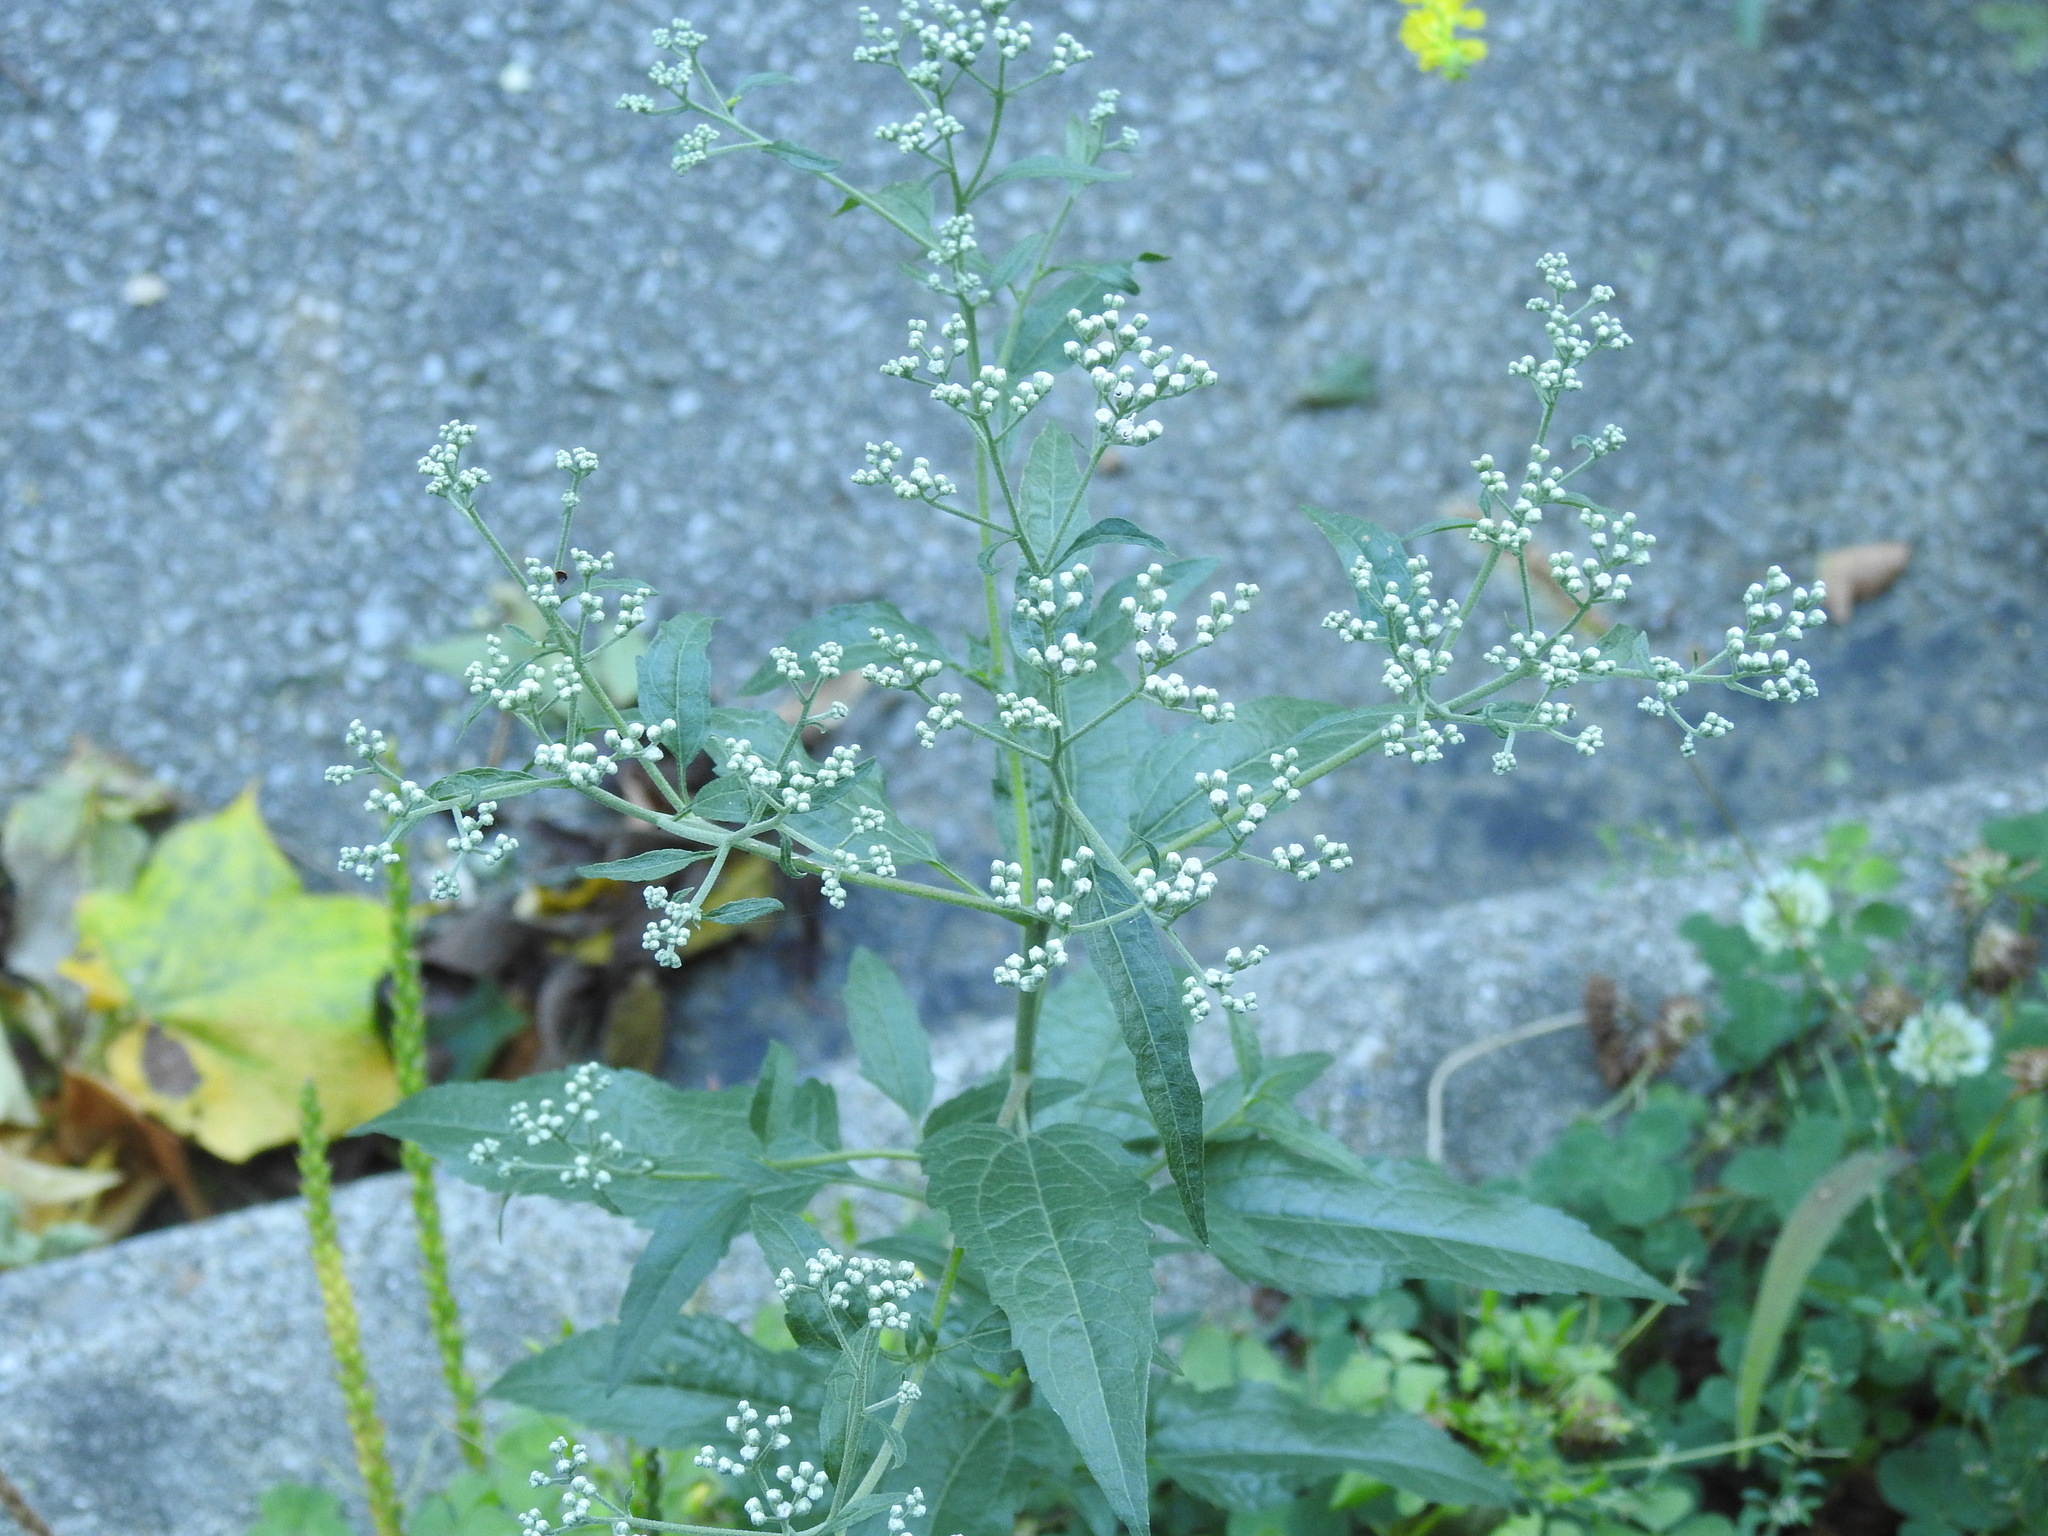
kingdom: Plantae
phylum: Tracheophyta
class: Magnoliopsida
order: Asterales
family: Asteraceae
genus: Eupatorium
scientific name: Eupatorium serotinum
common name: Late boneset
